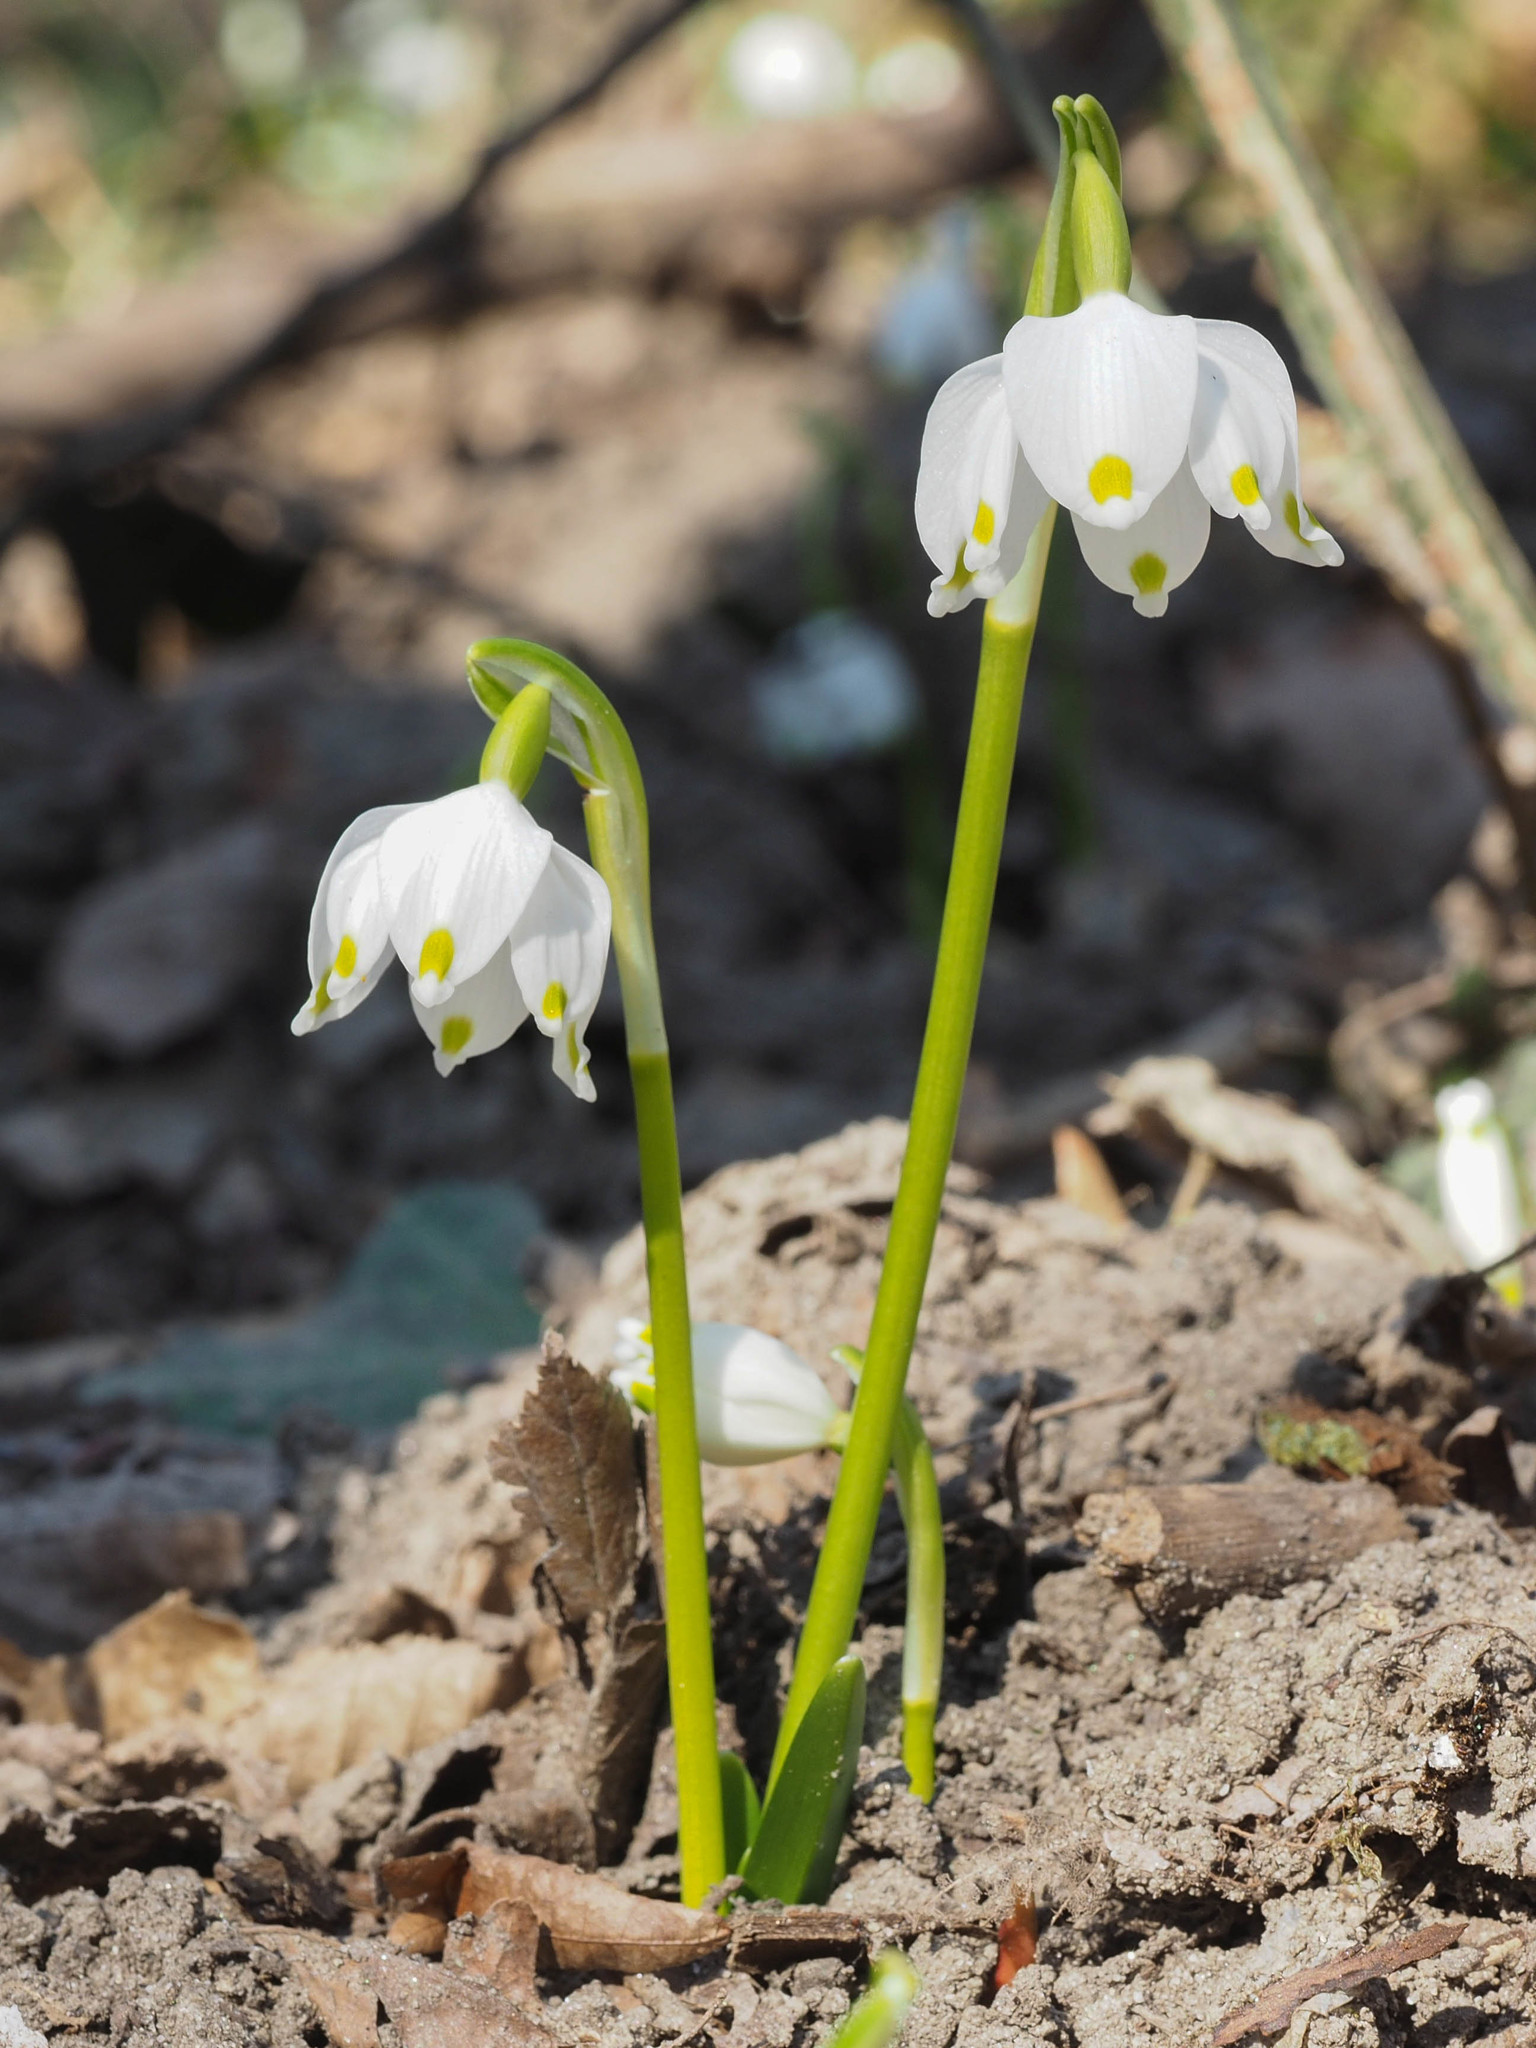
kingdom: Plantae
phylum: Tracheophyta
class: Liliopsida
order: Asparagales
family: Amaryllidaceae
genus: Leucojum
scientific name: Leucojum vernum
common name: Spring snowflake
